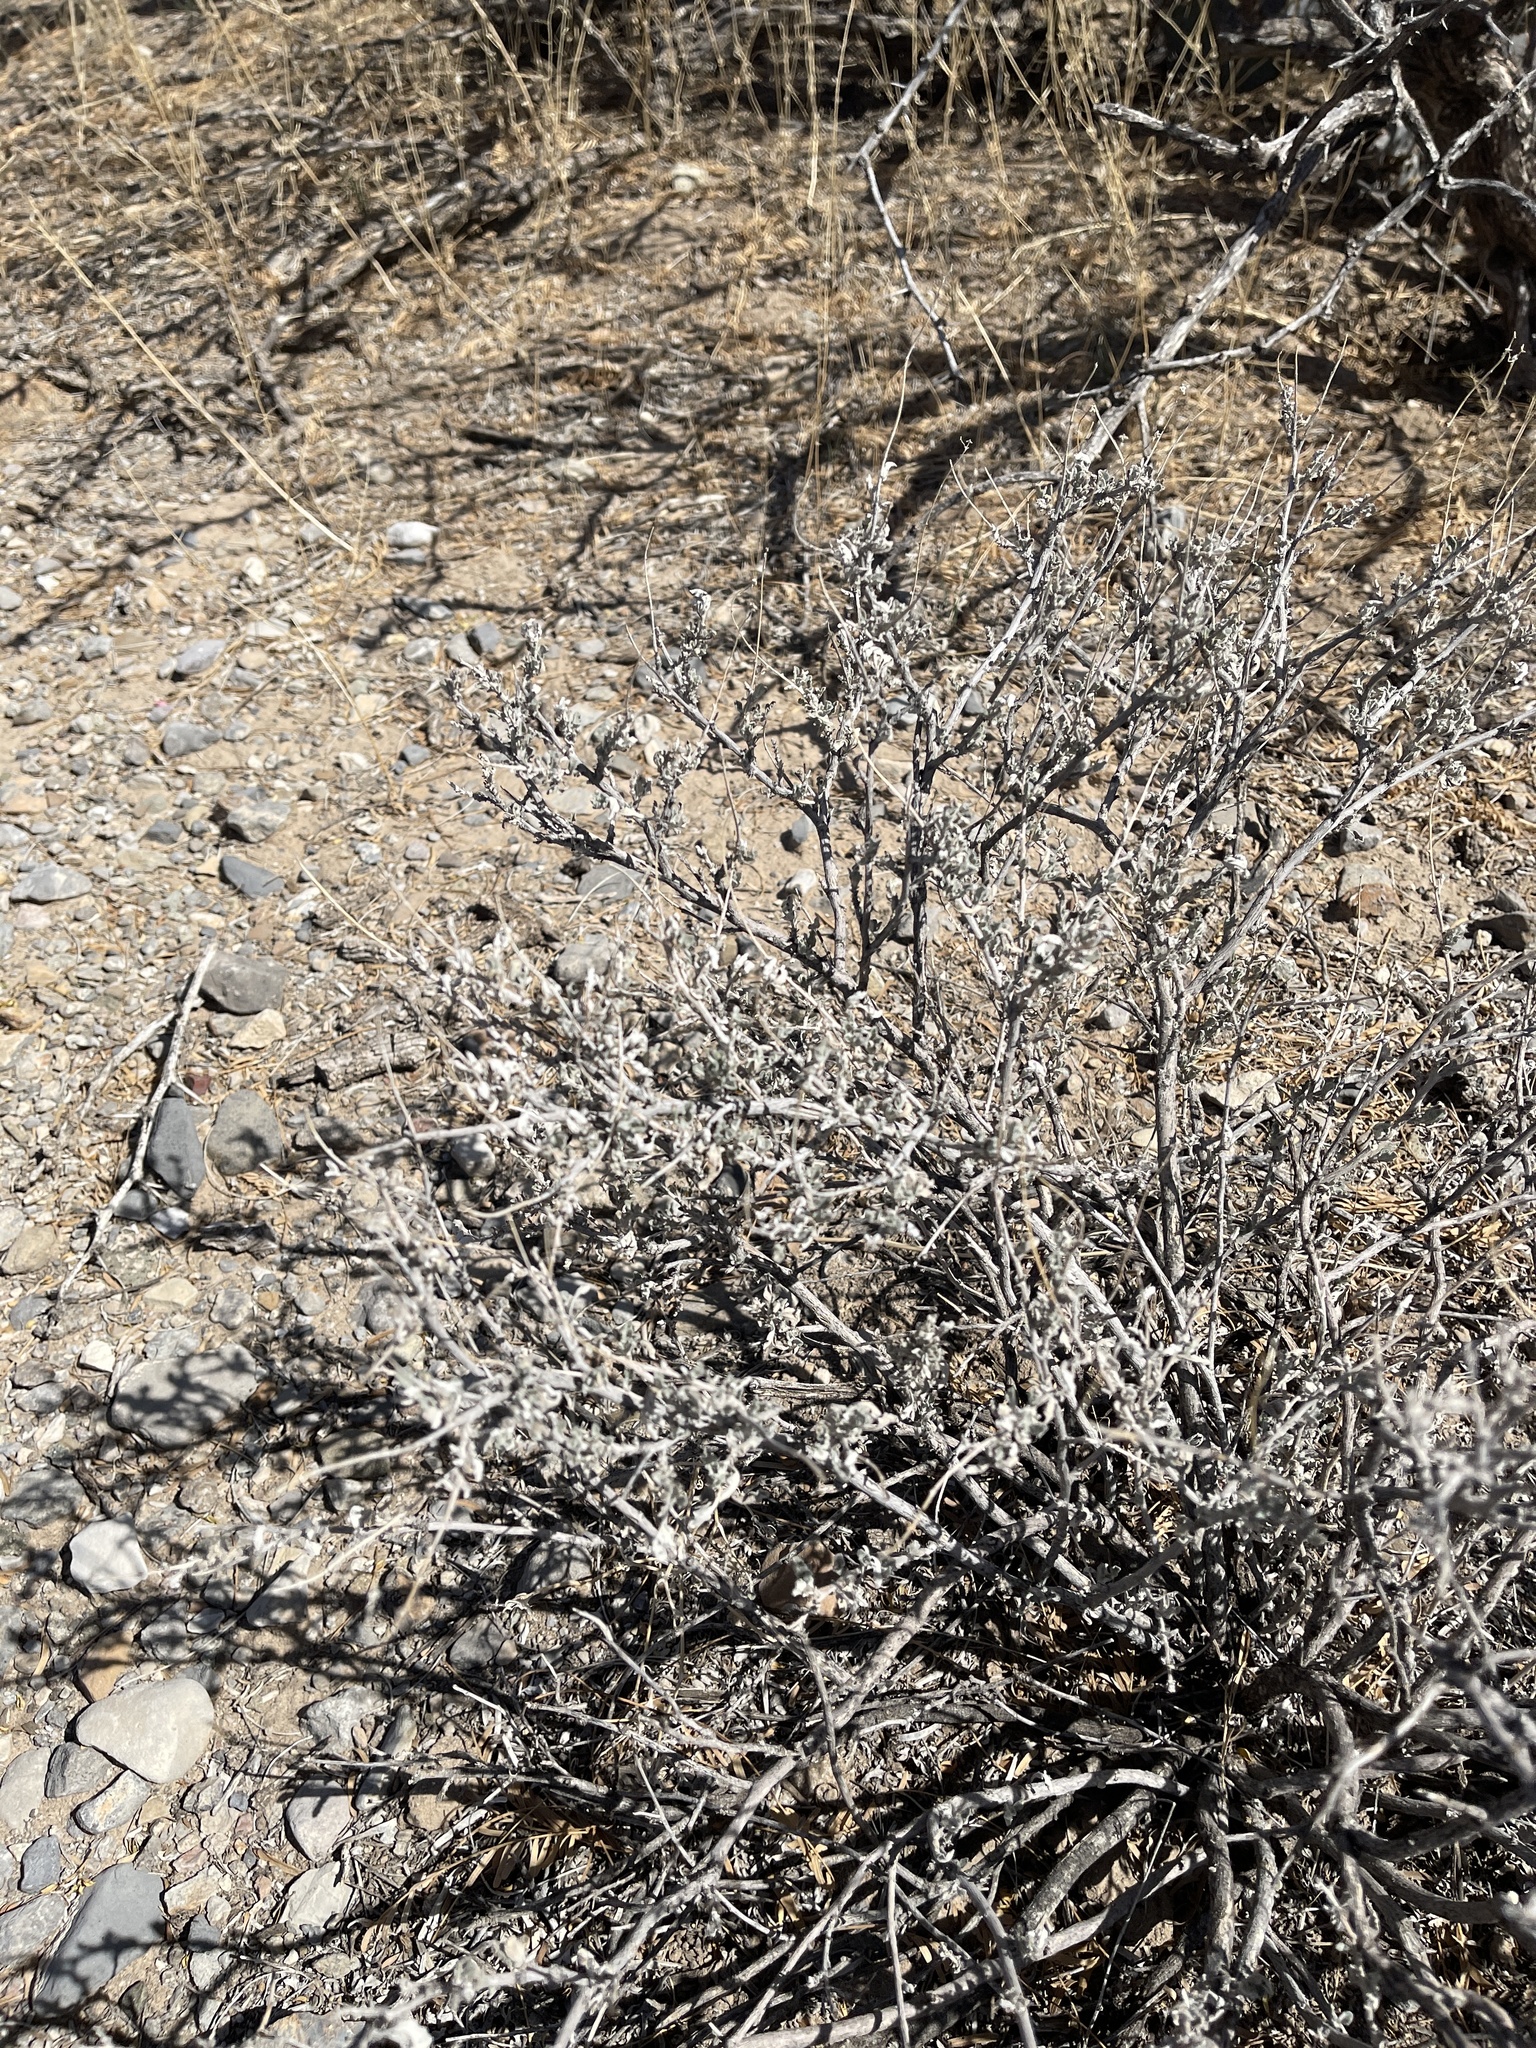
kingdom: Plantae
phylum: Tracheophyta
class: Magnoliopsida
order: Asterales
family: Asteraceae
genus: Parthenium
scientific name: Parthenium incanum
